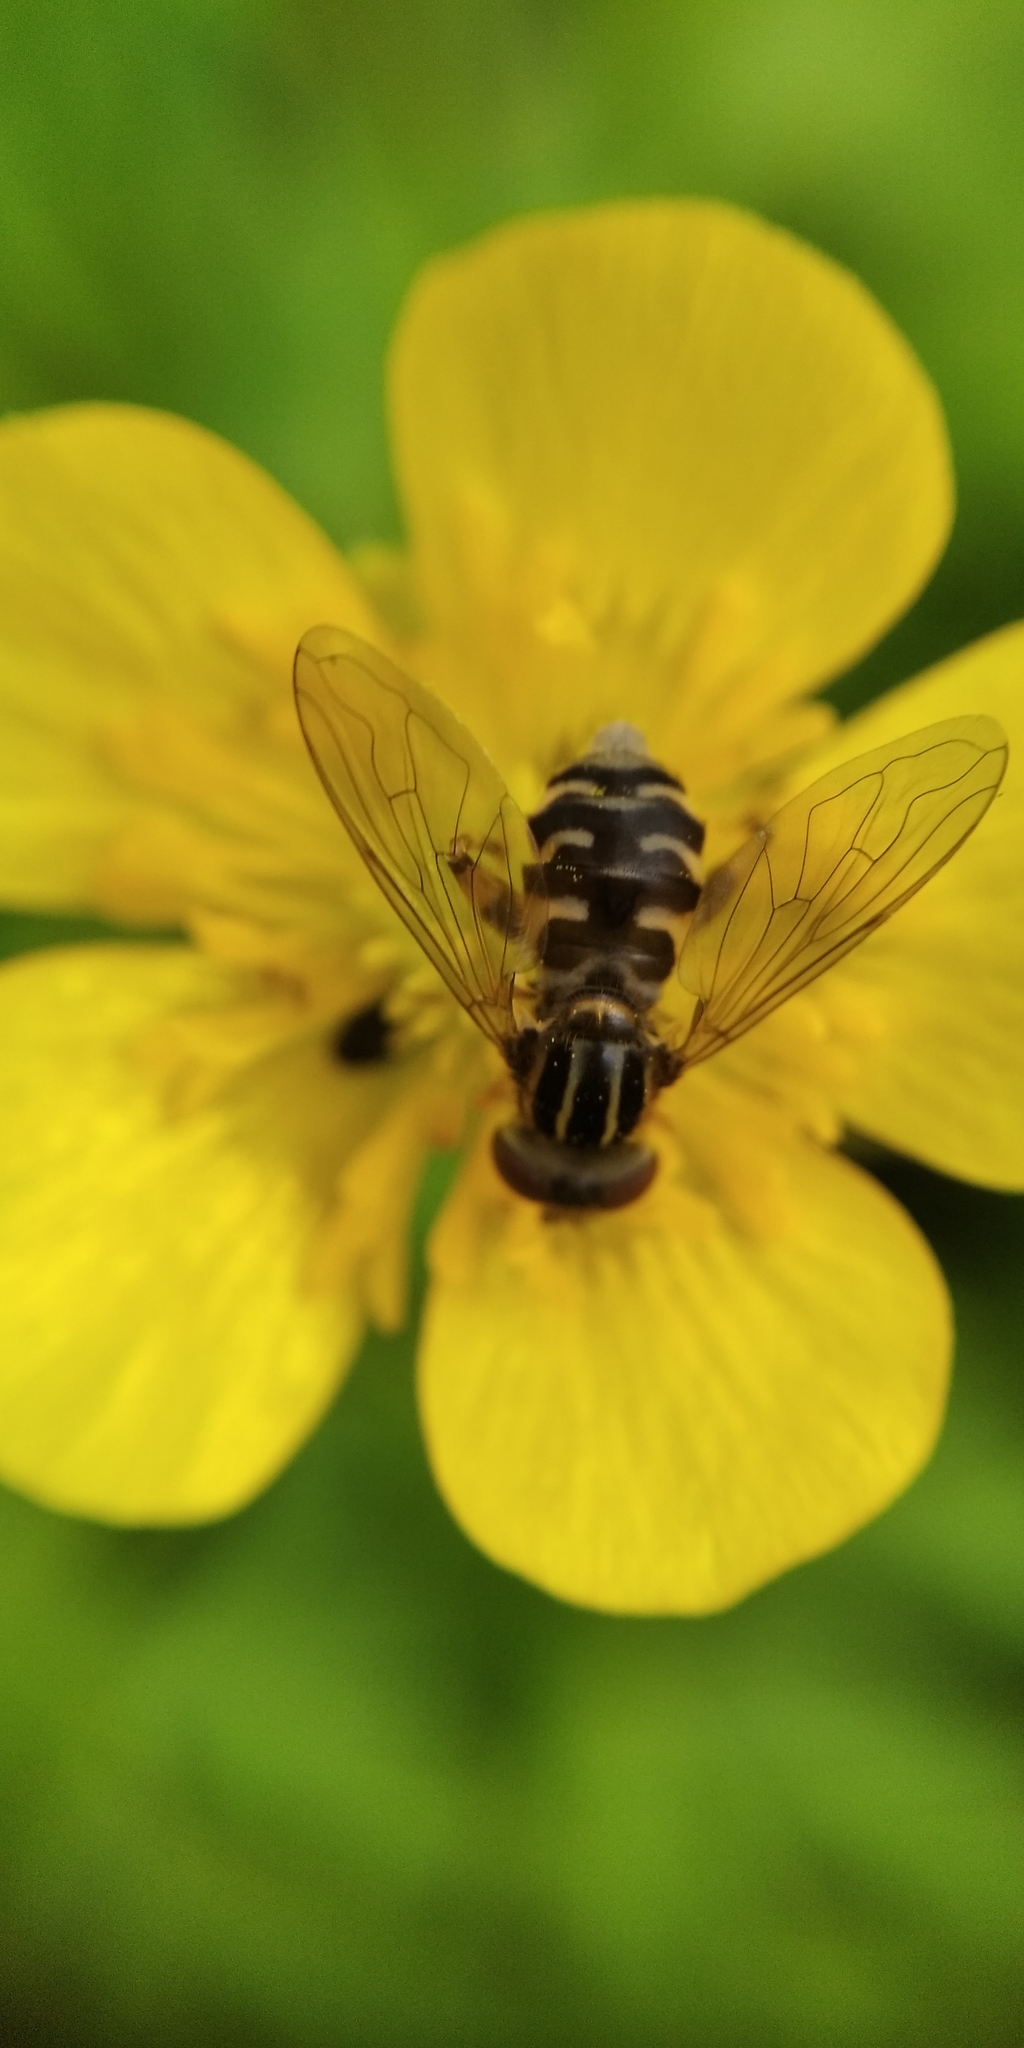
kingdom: Animalia
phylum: Arthropoda
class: Insecta
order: Diptera
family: Syrphidae
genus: Eurimyia
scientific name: Eurimyia lineatus
